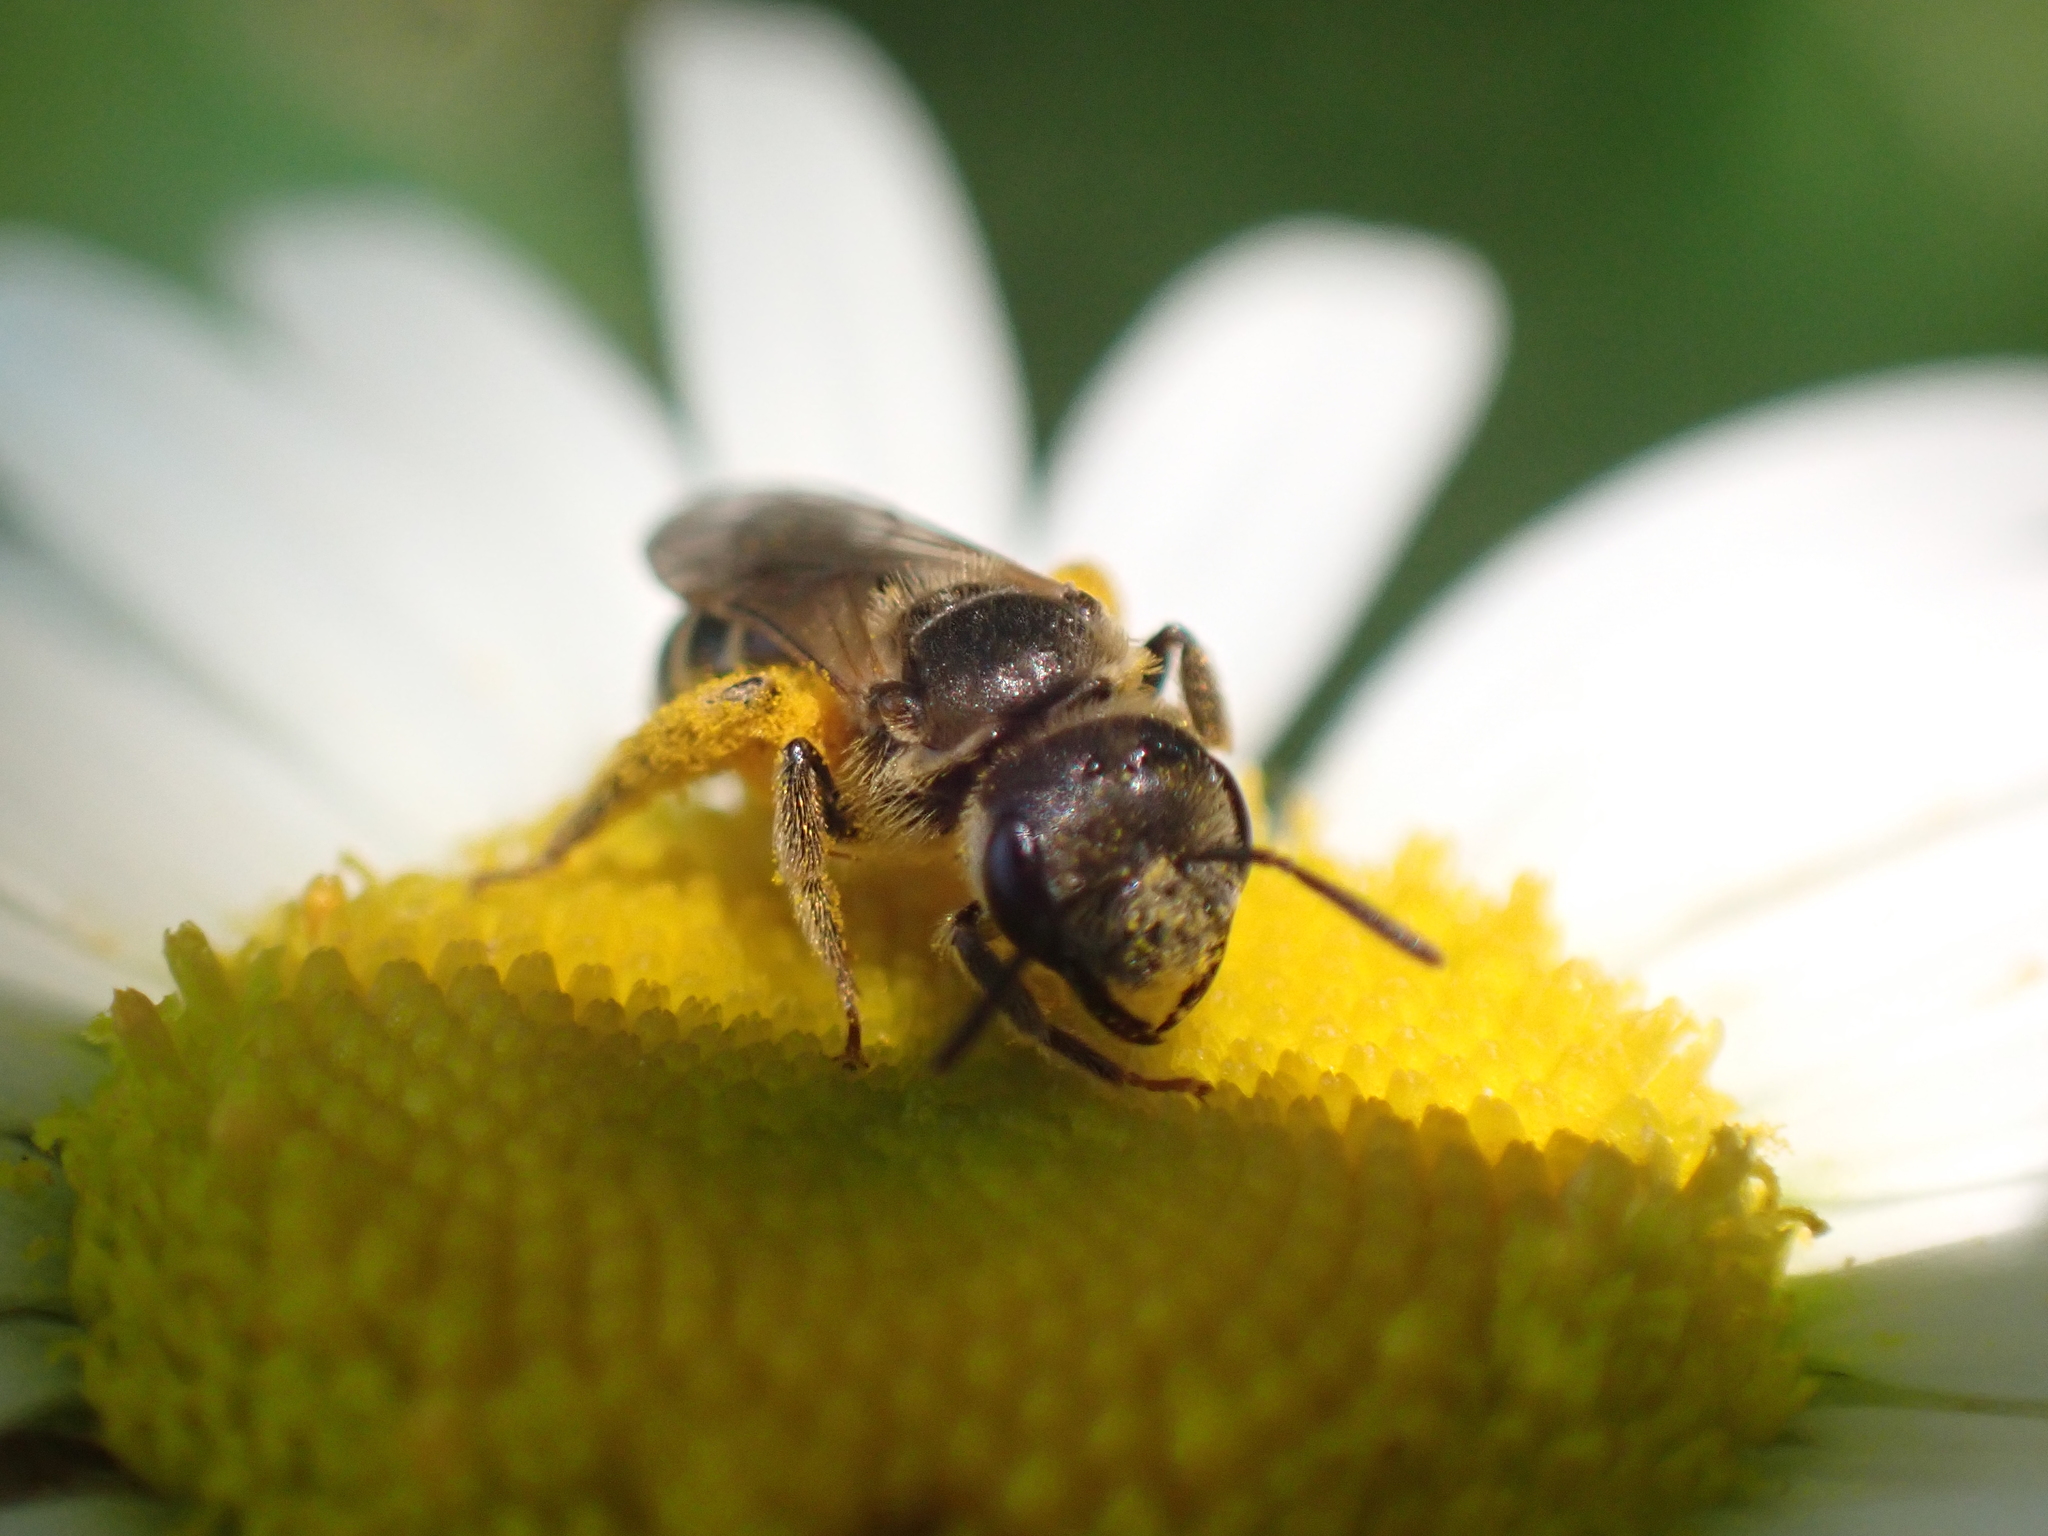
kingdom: Animalia
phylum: Arthropoda
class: Insecta
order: Hymenoptera
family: Halictidae
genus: Halictus
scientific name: Halictus ligatus
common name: Ligated furrow bee
